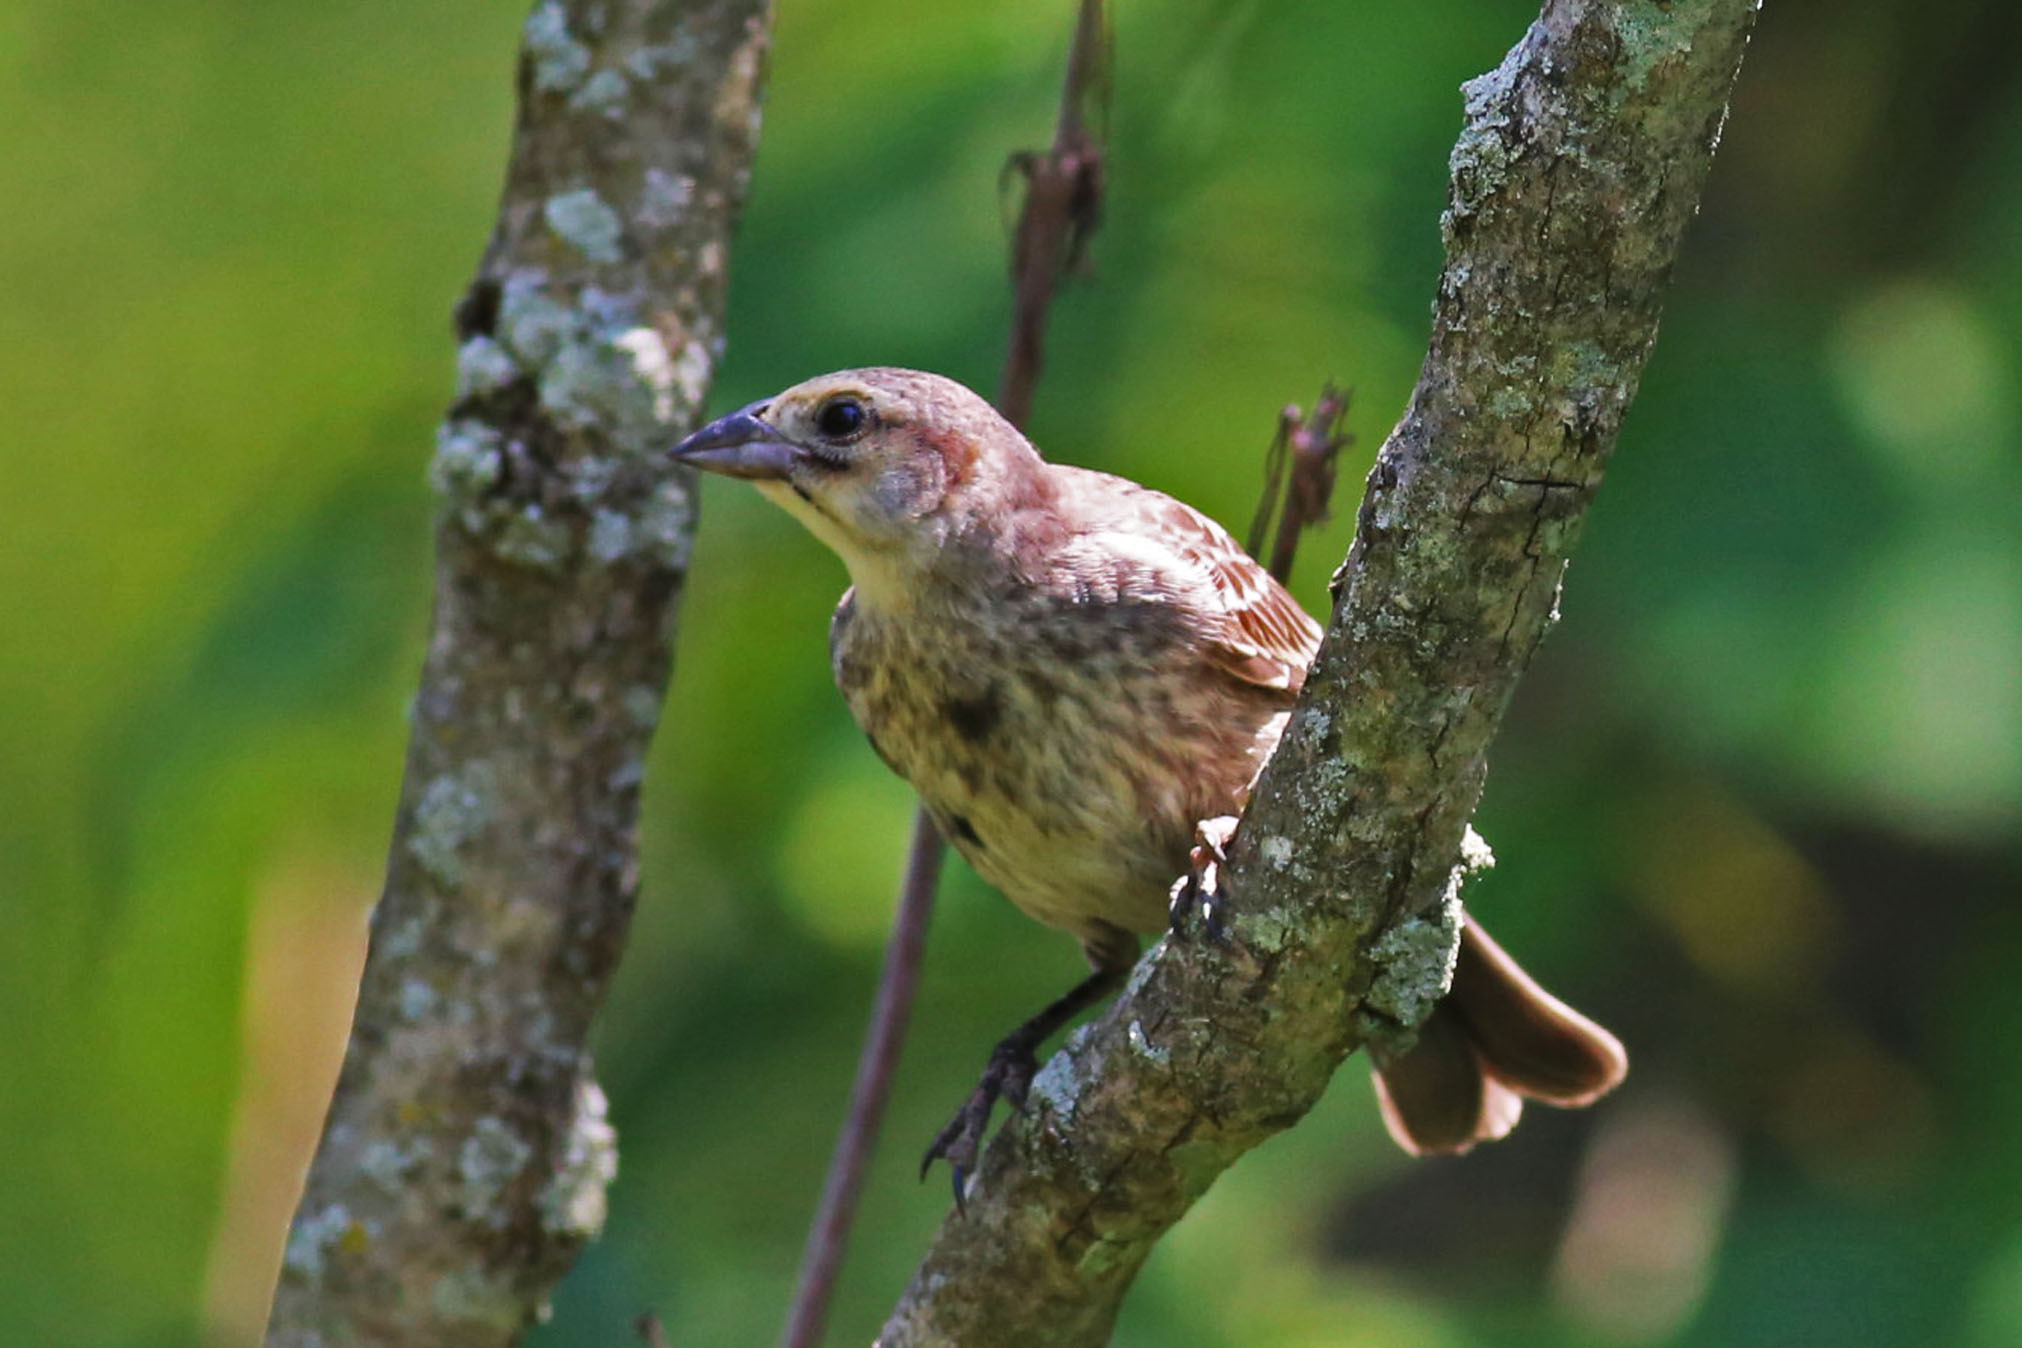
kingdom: Animalia
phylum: Chordata
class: Aves
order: Passeriformes
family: Icteridae
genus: Molothrus
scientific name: Molothrus ater
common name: Brown-headed cowbird
